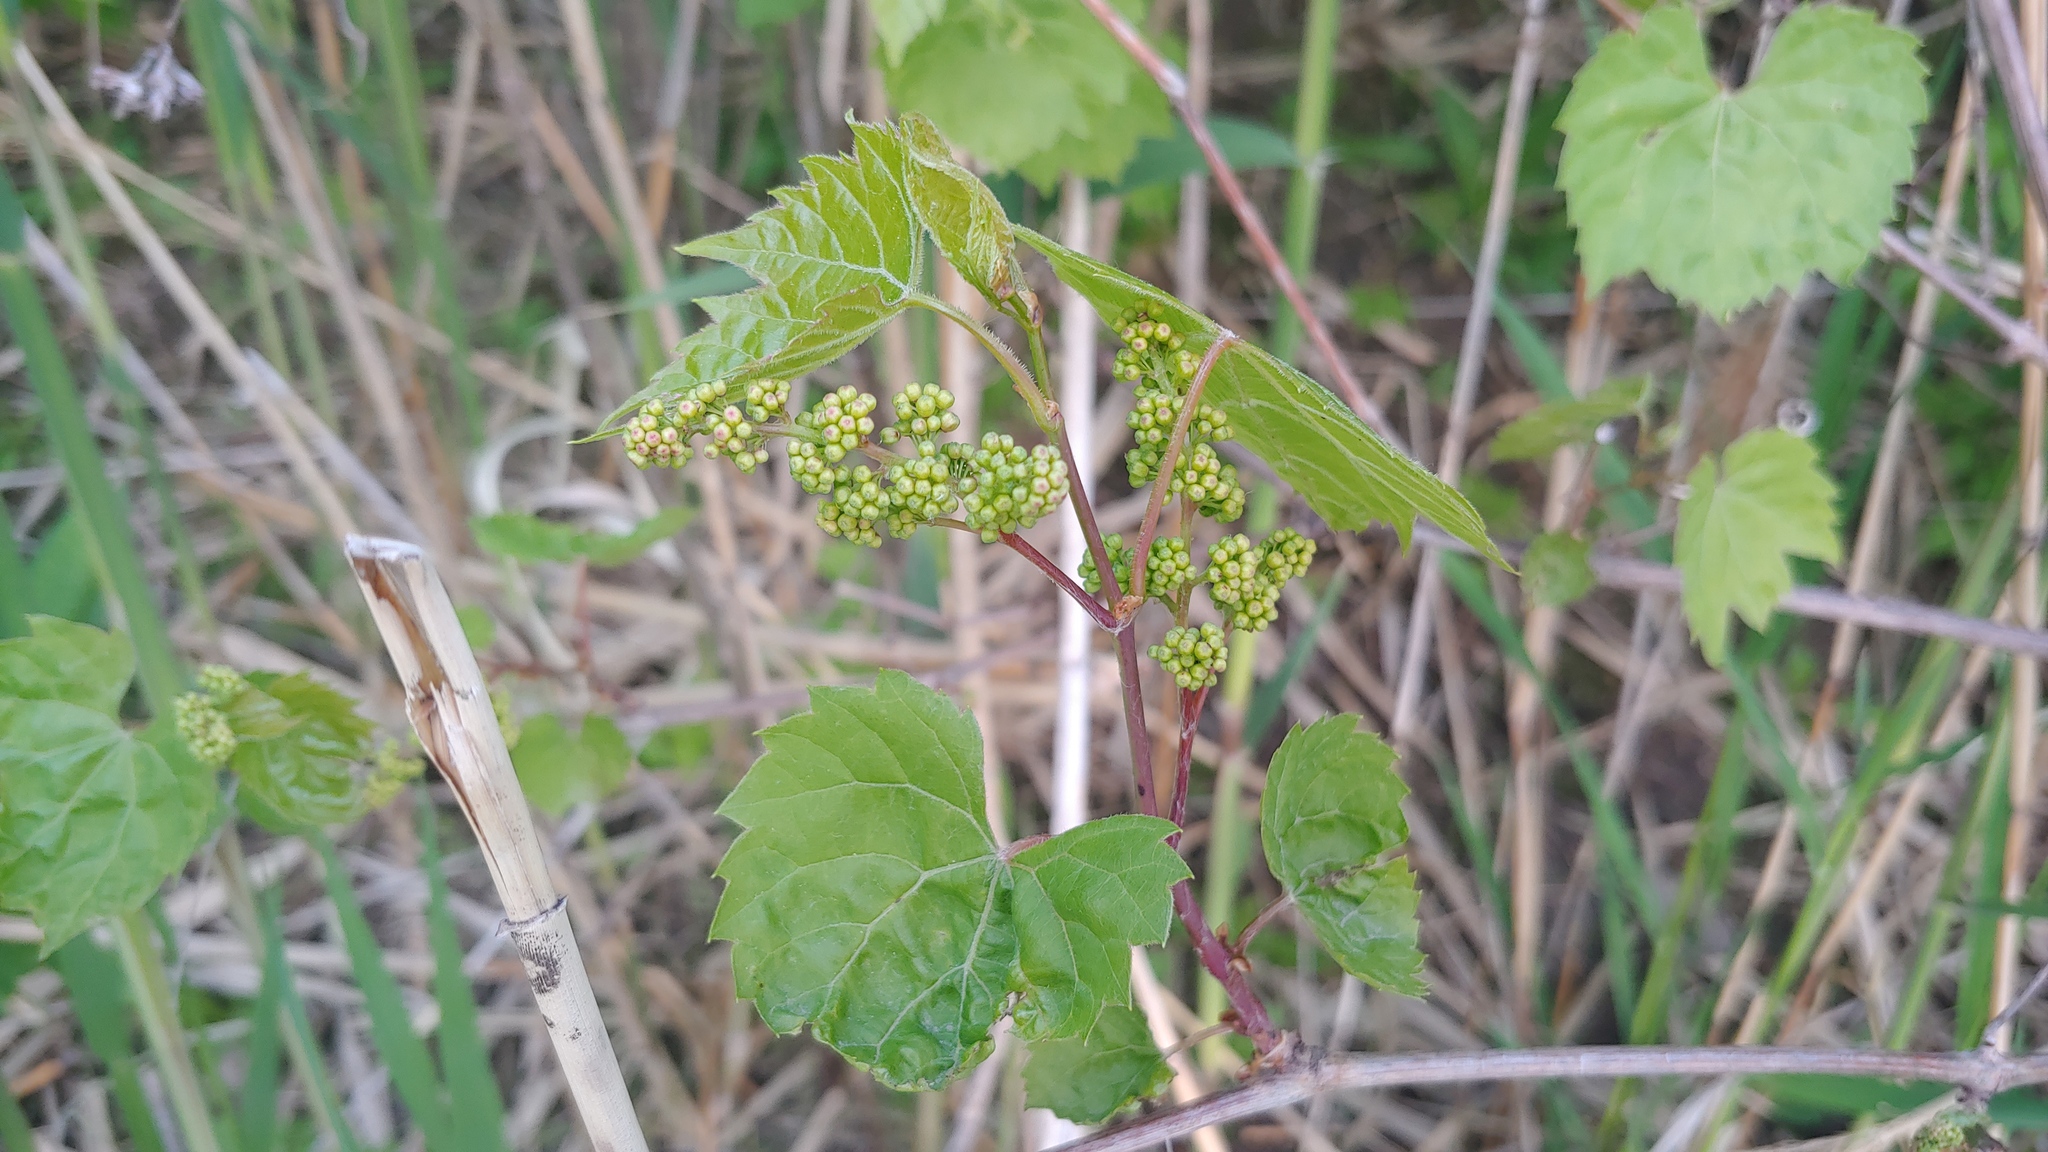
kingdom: Plantae
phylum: Tracheophyta
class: Magnoliopsida
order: Vitales
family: Vitaceae
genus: Vitis
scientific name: Vitis riparia
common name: Frost grape
